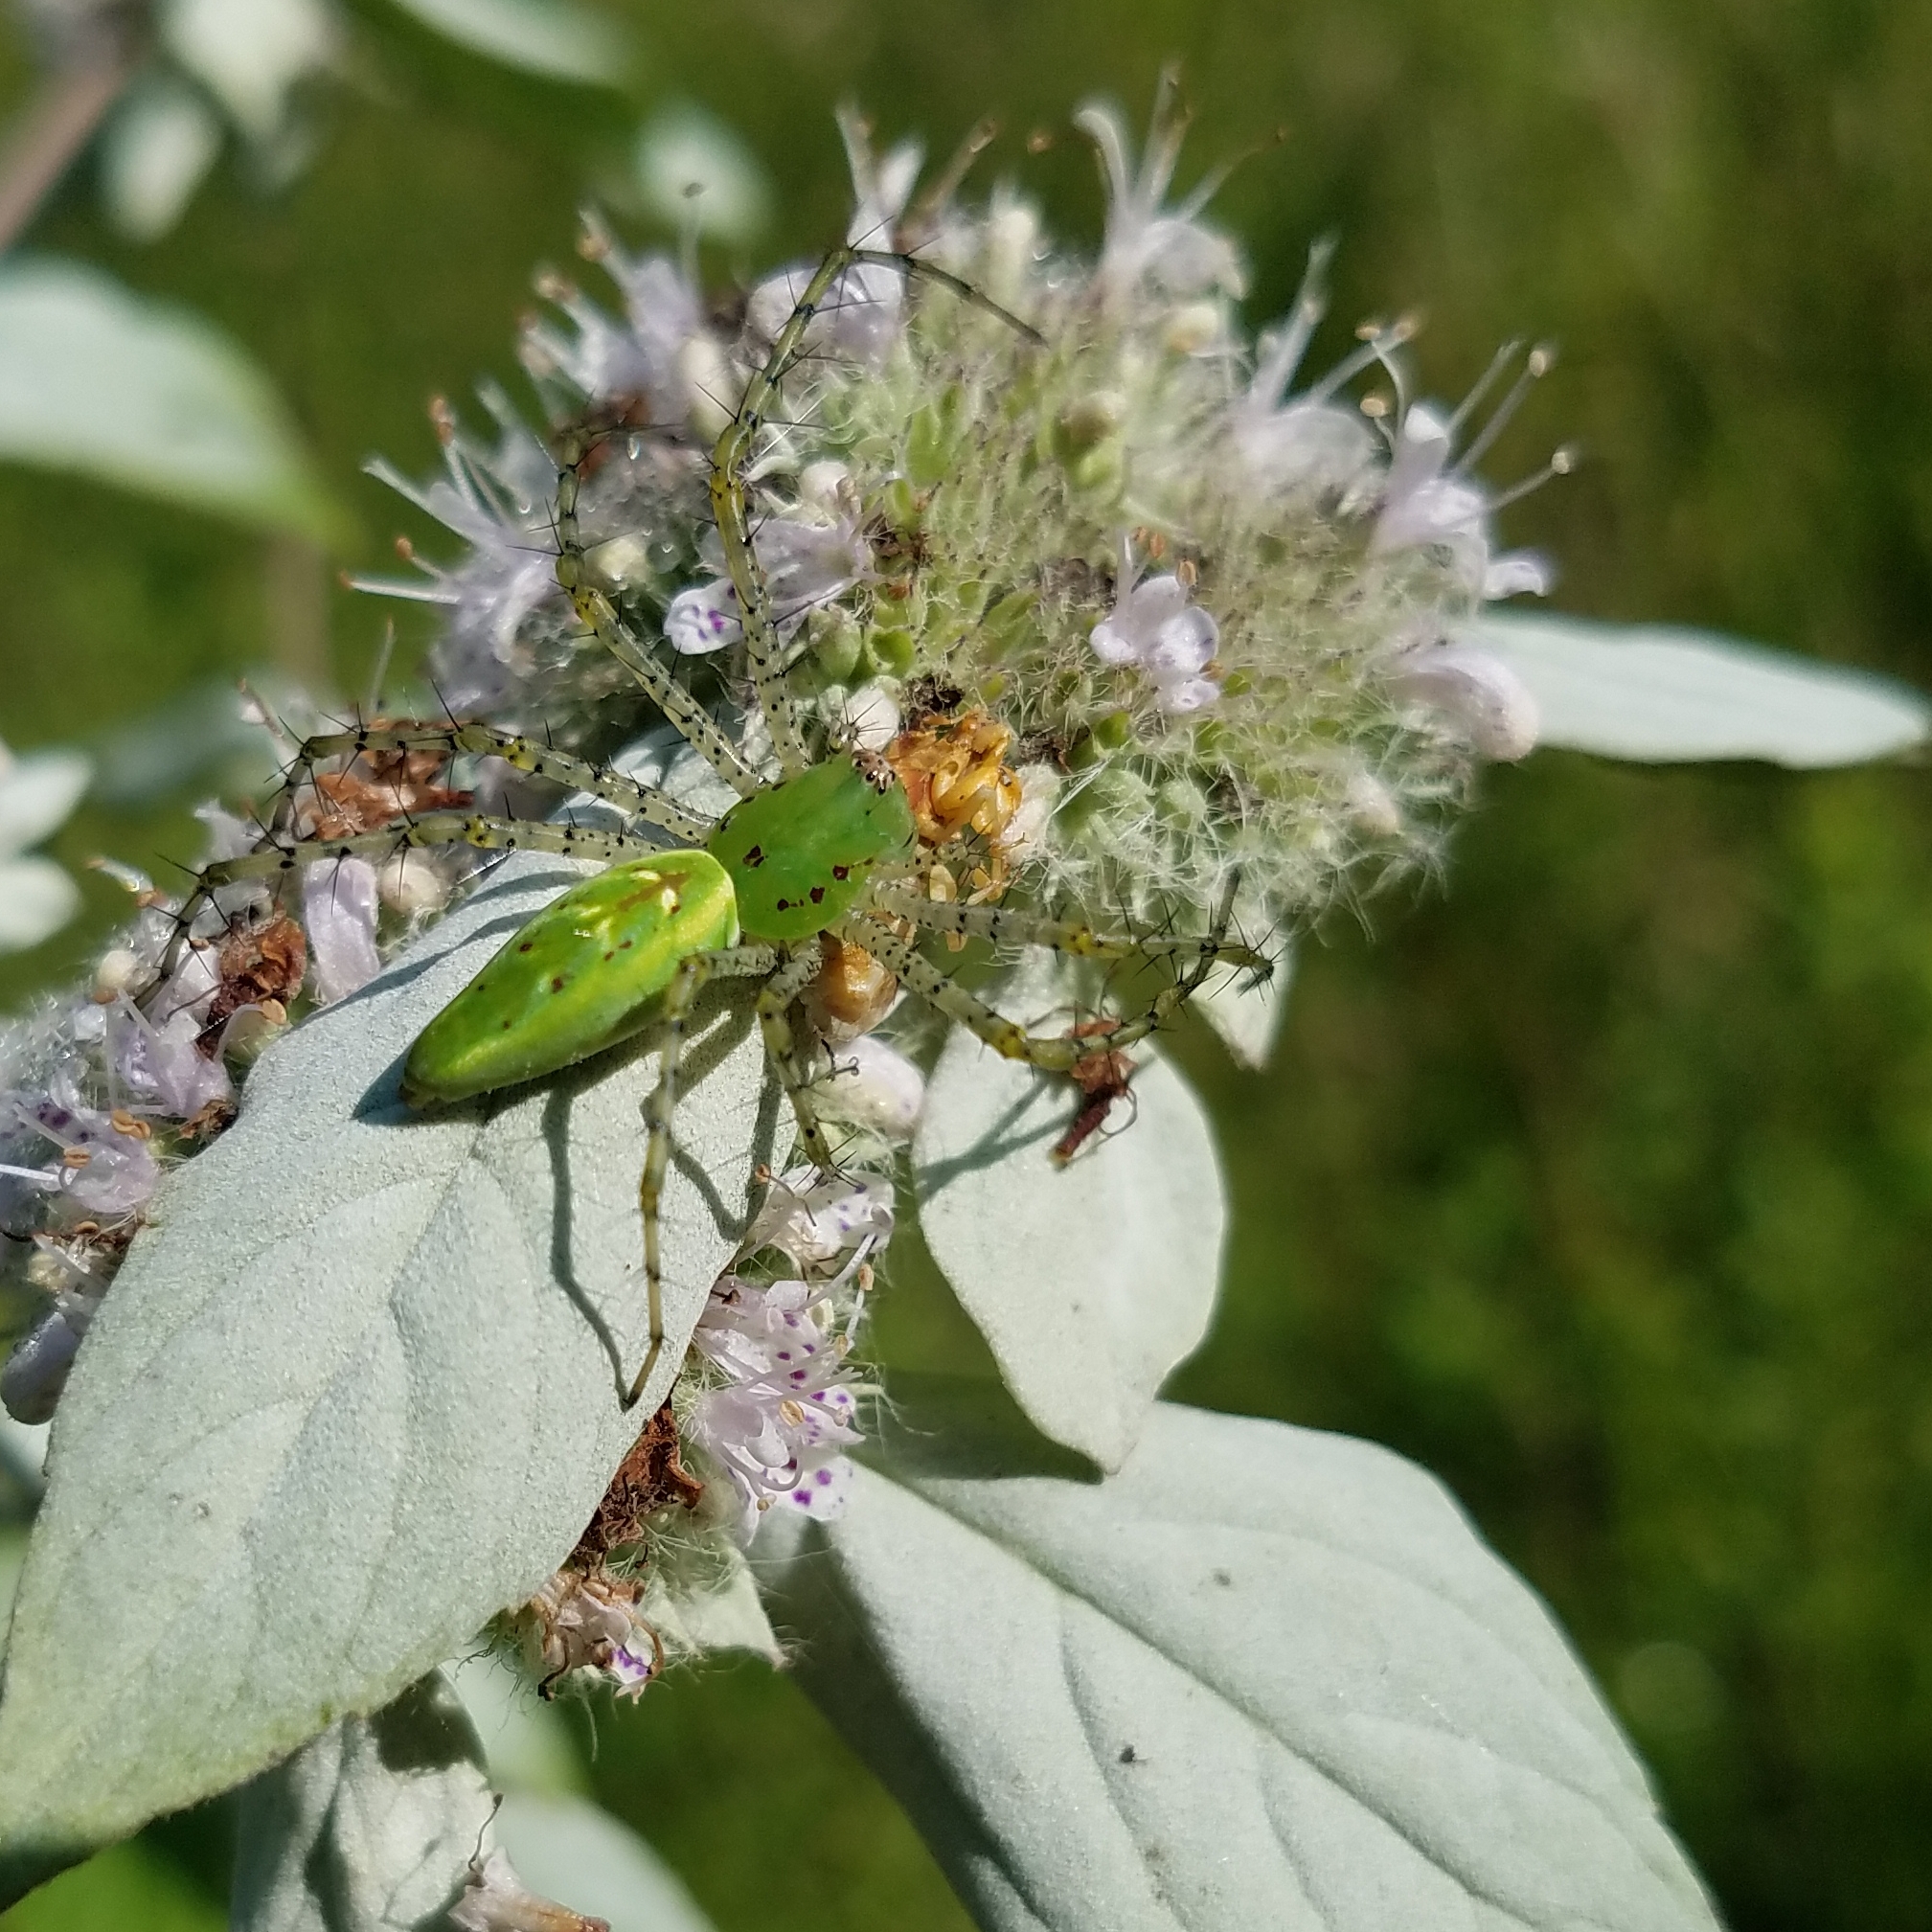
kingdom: Animalia
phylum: Arthropoda
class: Arachnida
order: Araneae
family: Oxyopidae
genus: Peucetia
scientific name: Peucetia viridans
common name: Lynx spiders
